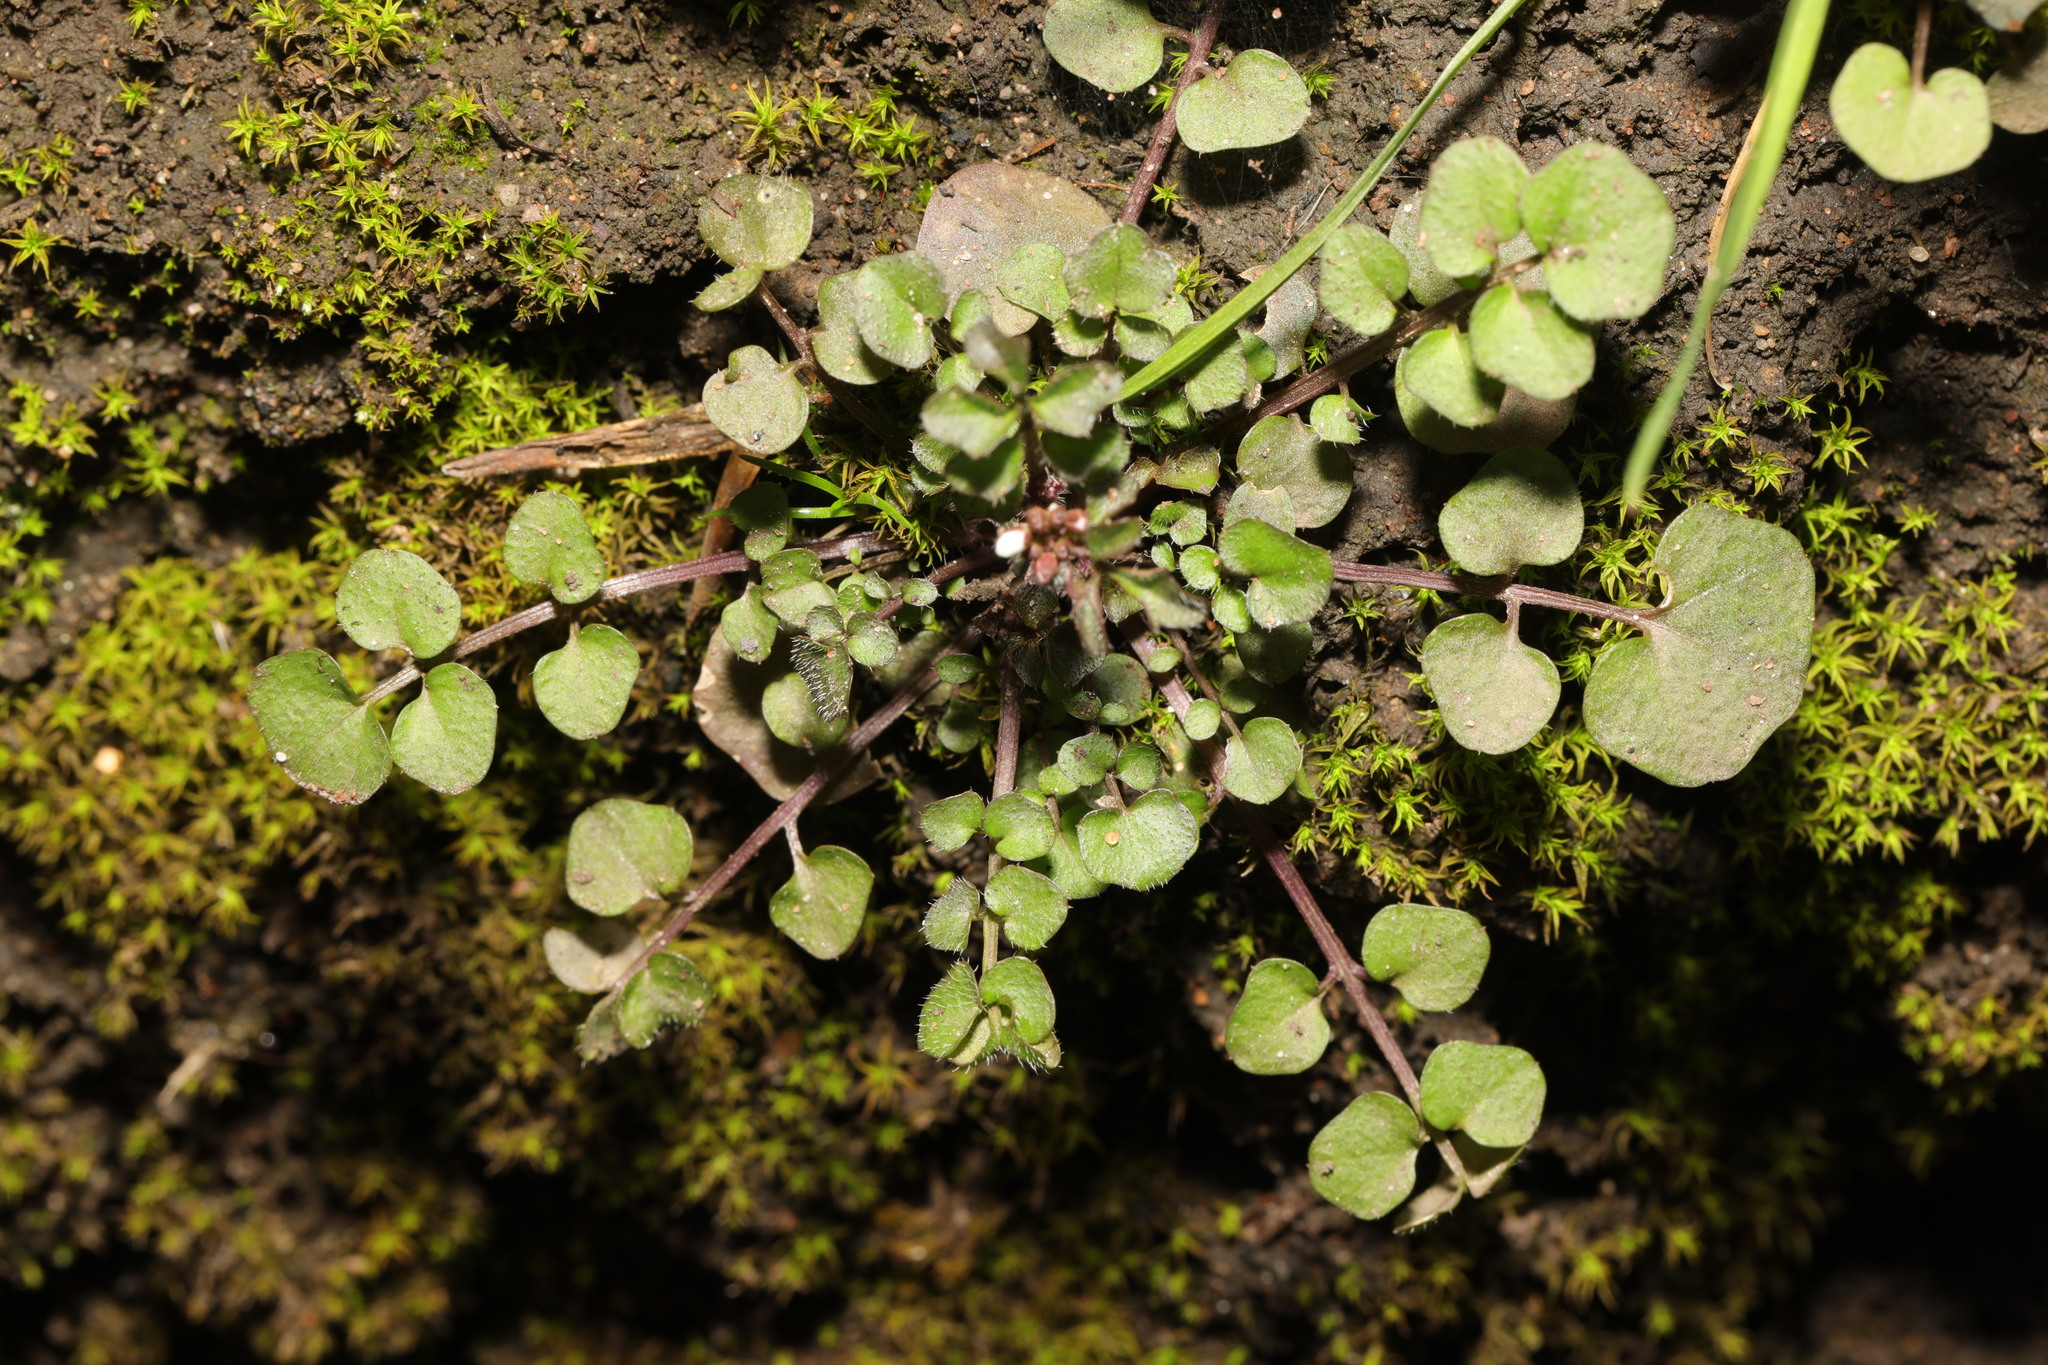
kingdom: Plantae
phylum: Tracheophyta
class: Magnoliopsida
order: Brassicales
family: Brassicaceae
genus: Cardamine
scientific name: Cardamine hirsuta
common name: Hairy bittercress
